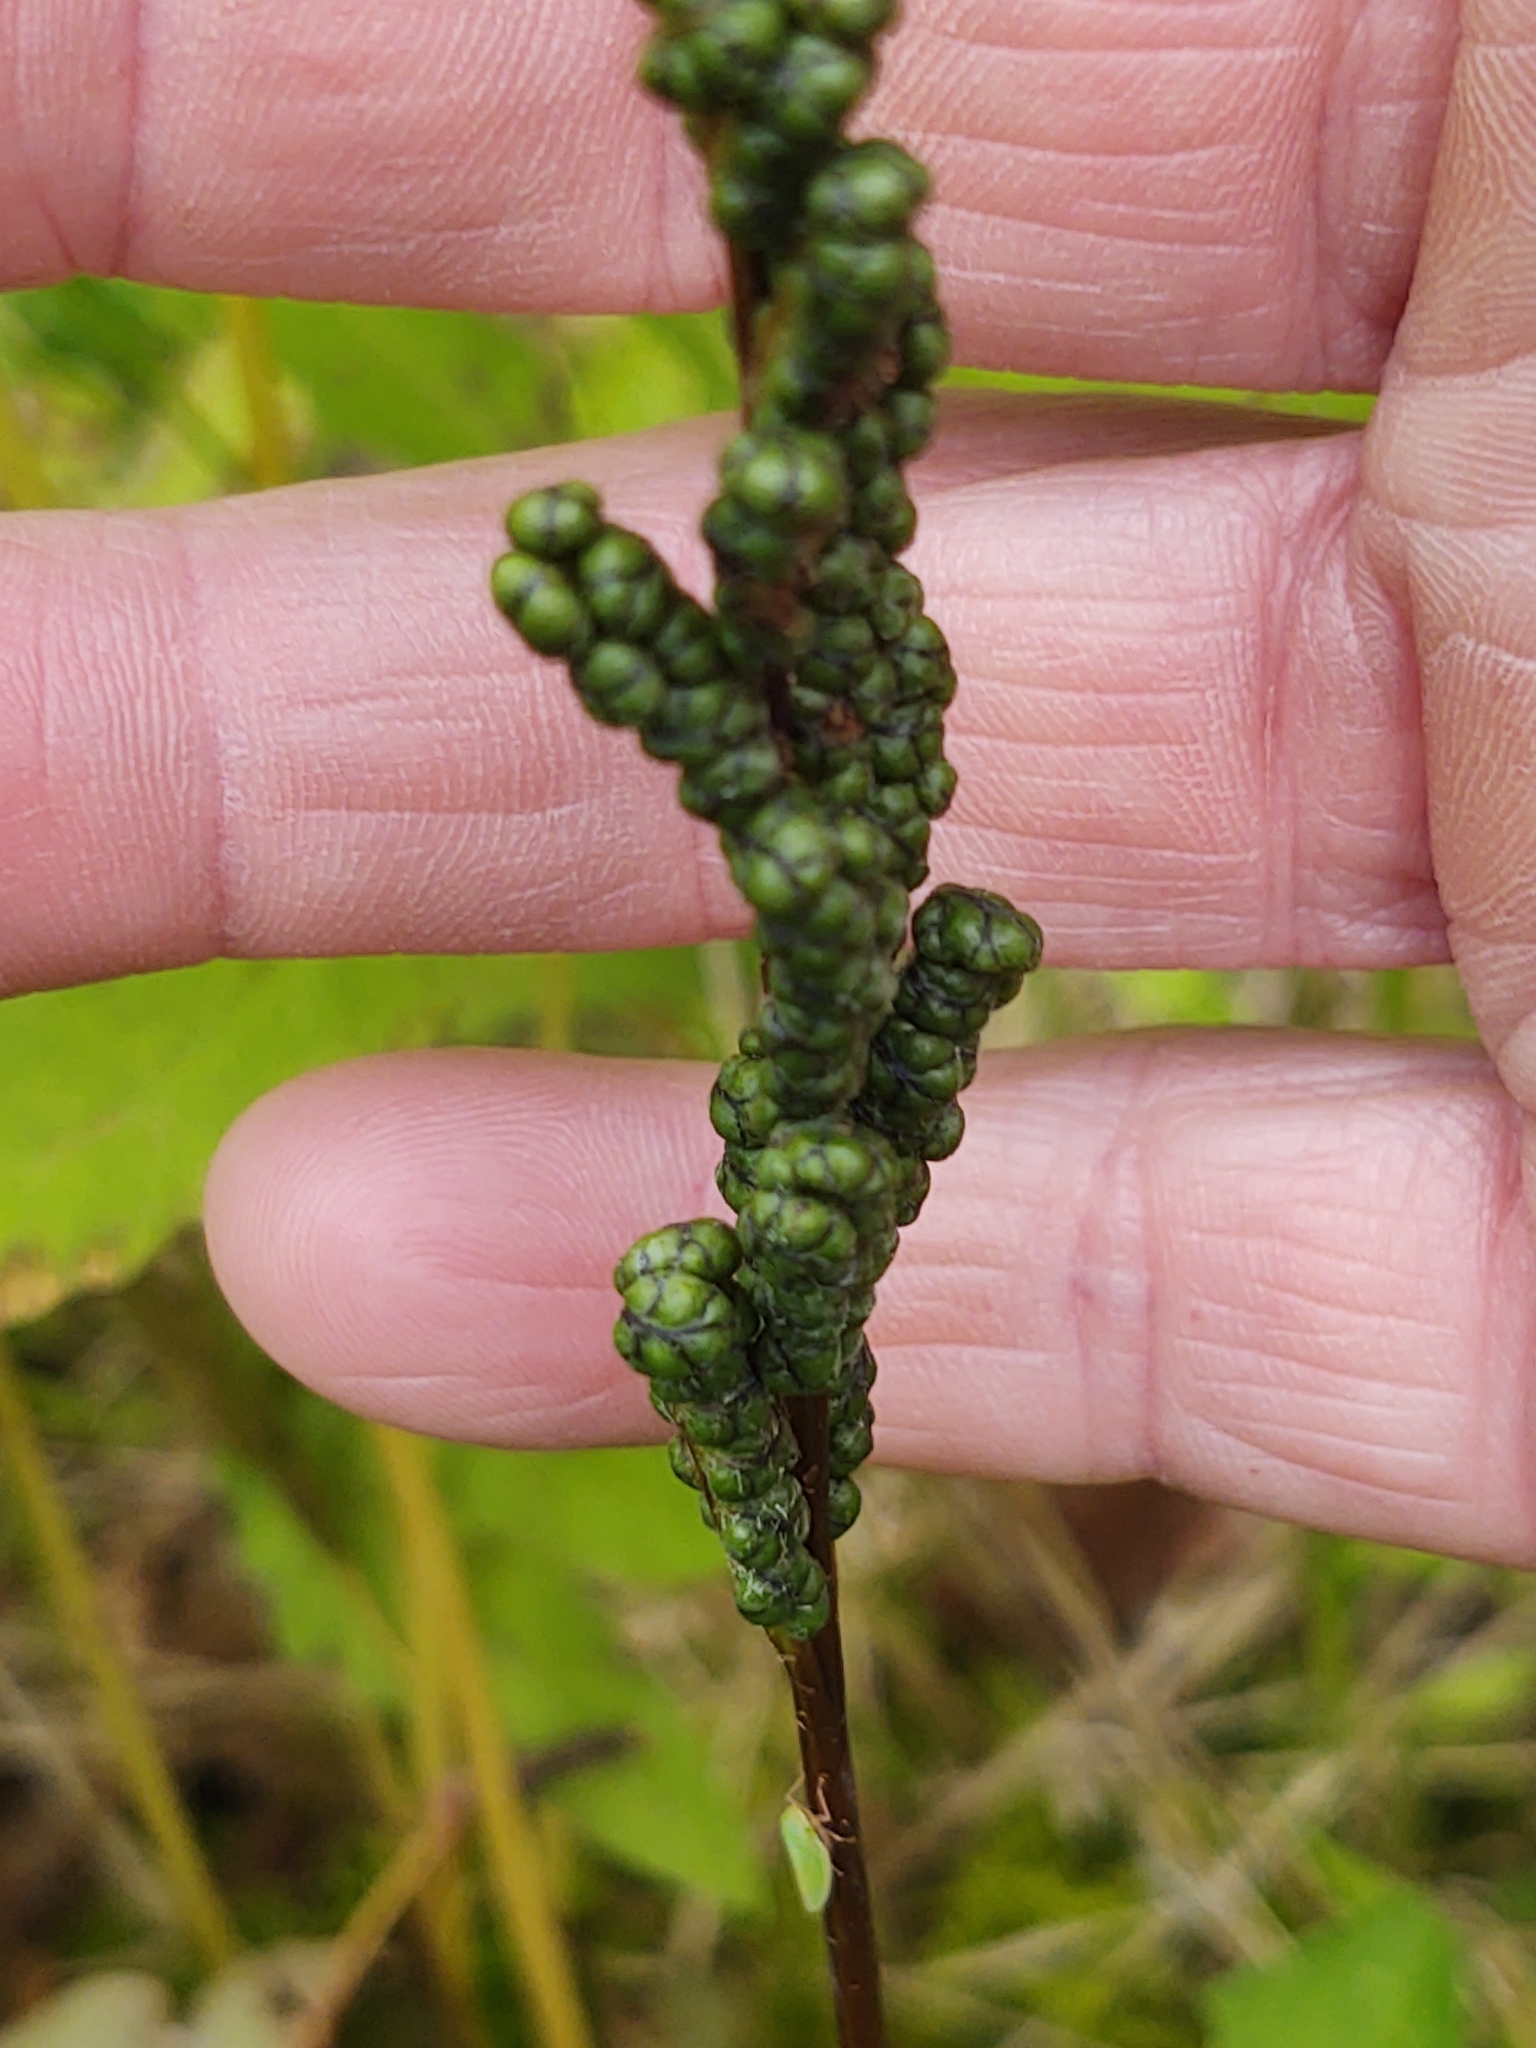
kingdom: Plantae
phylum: Tracheophyta
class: Polypodiopsida
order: Polypodiales
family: Onocleaceae
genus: Onoclea
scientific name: Onoclea sensibilis
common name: Sensitive fern
